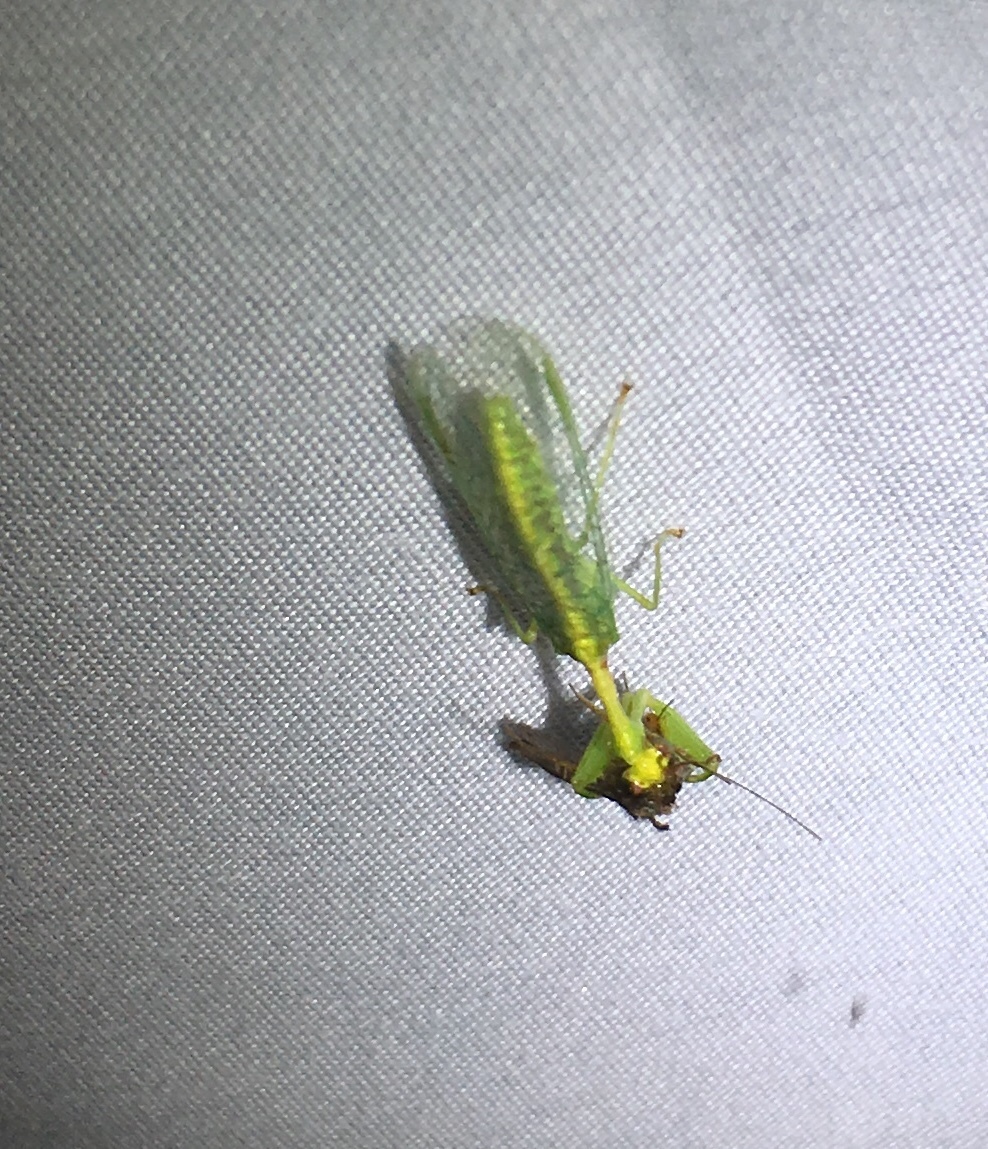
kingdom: Animalia
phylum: Arthropoda
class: Insecta
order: Neuroptera
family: Mantispidae
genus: Zeugomantispa
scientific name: Zeugomantispa minuta
